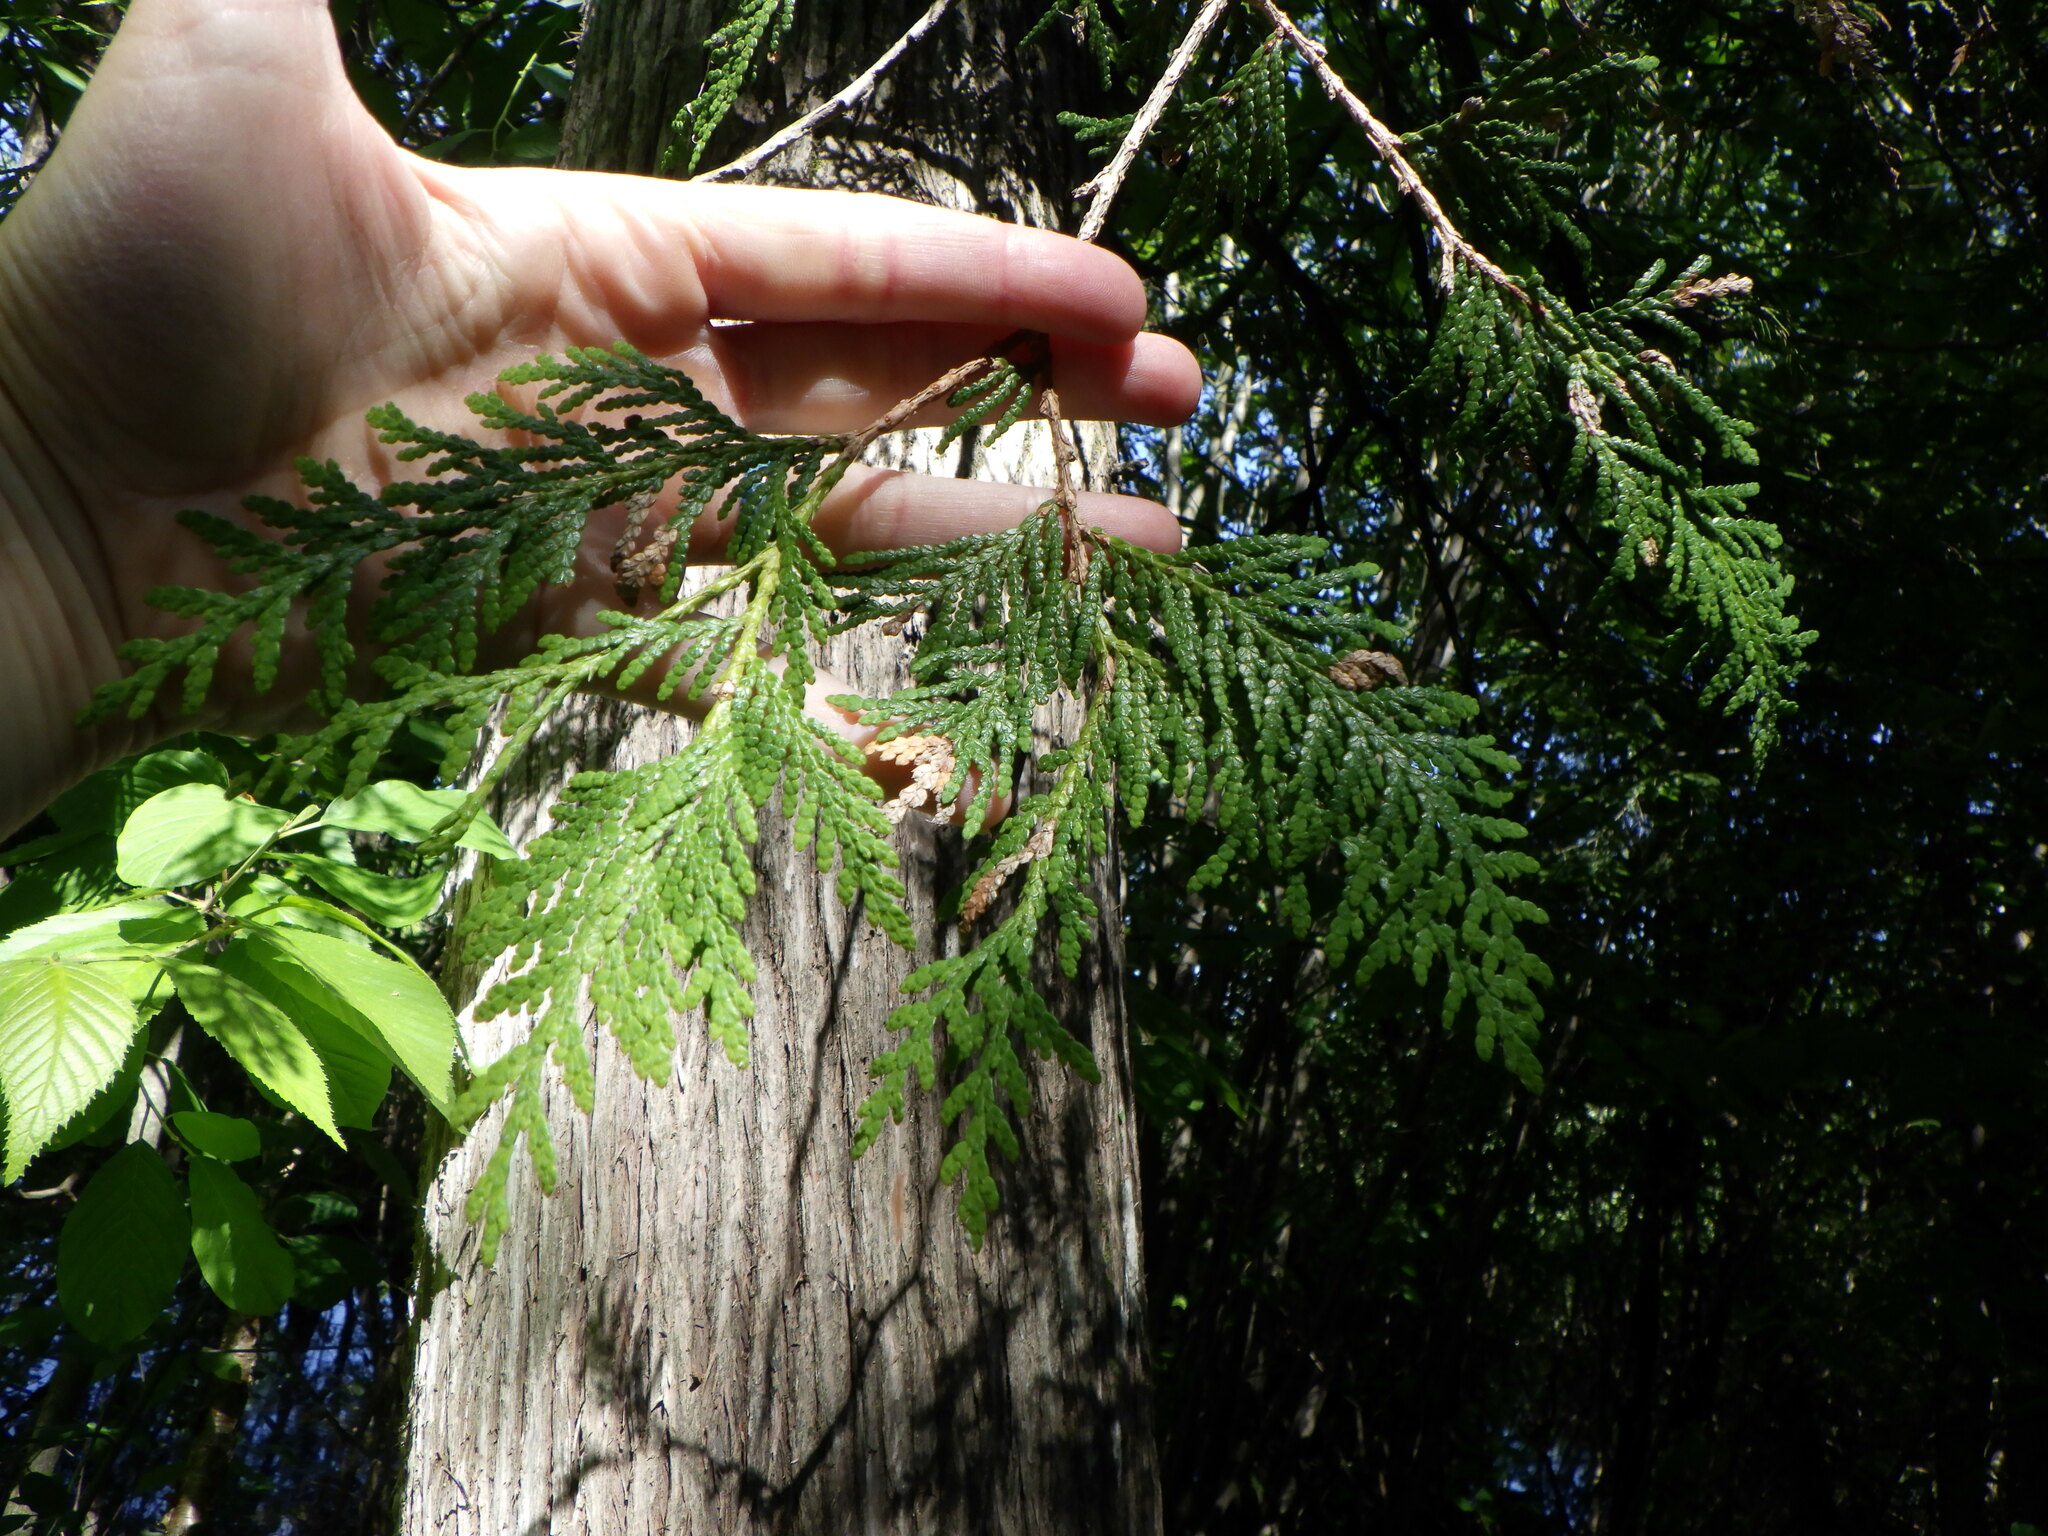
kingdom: Plantae
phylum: Tracheophyta
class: Pinopsida
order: Pinales
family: Cupressaceae
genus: Thuja
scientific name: Thuja occidentalis
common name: Northern white-cedar
